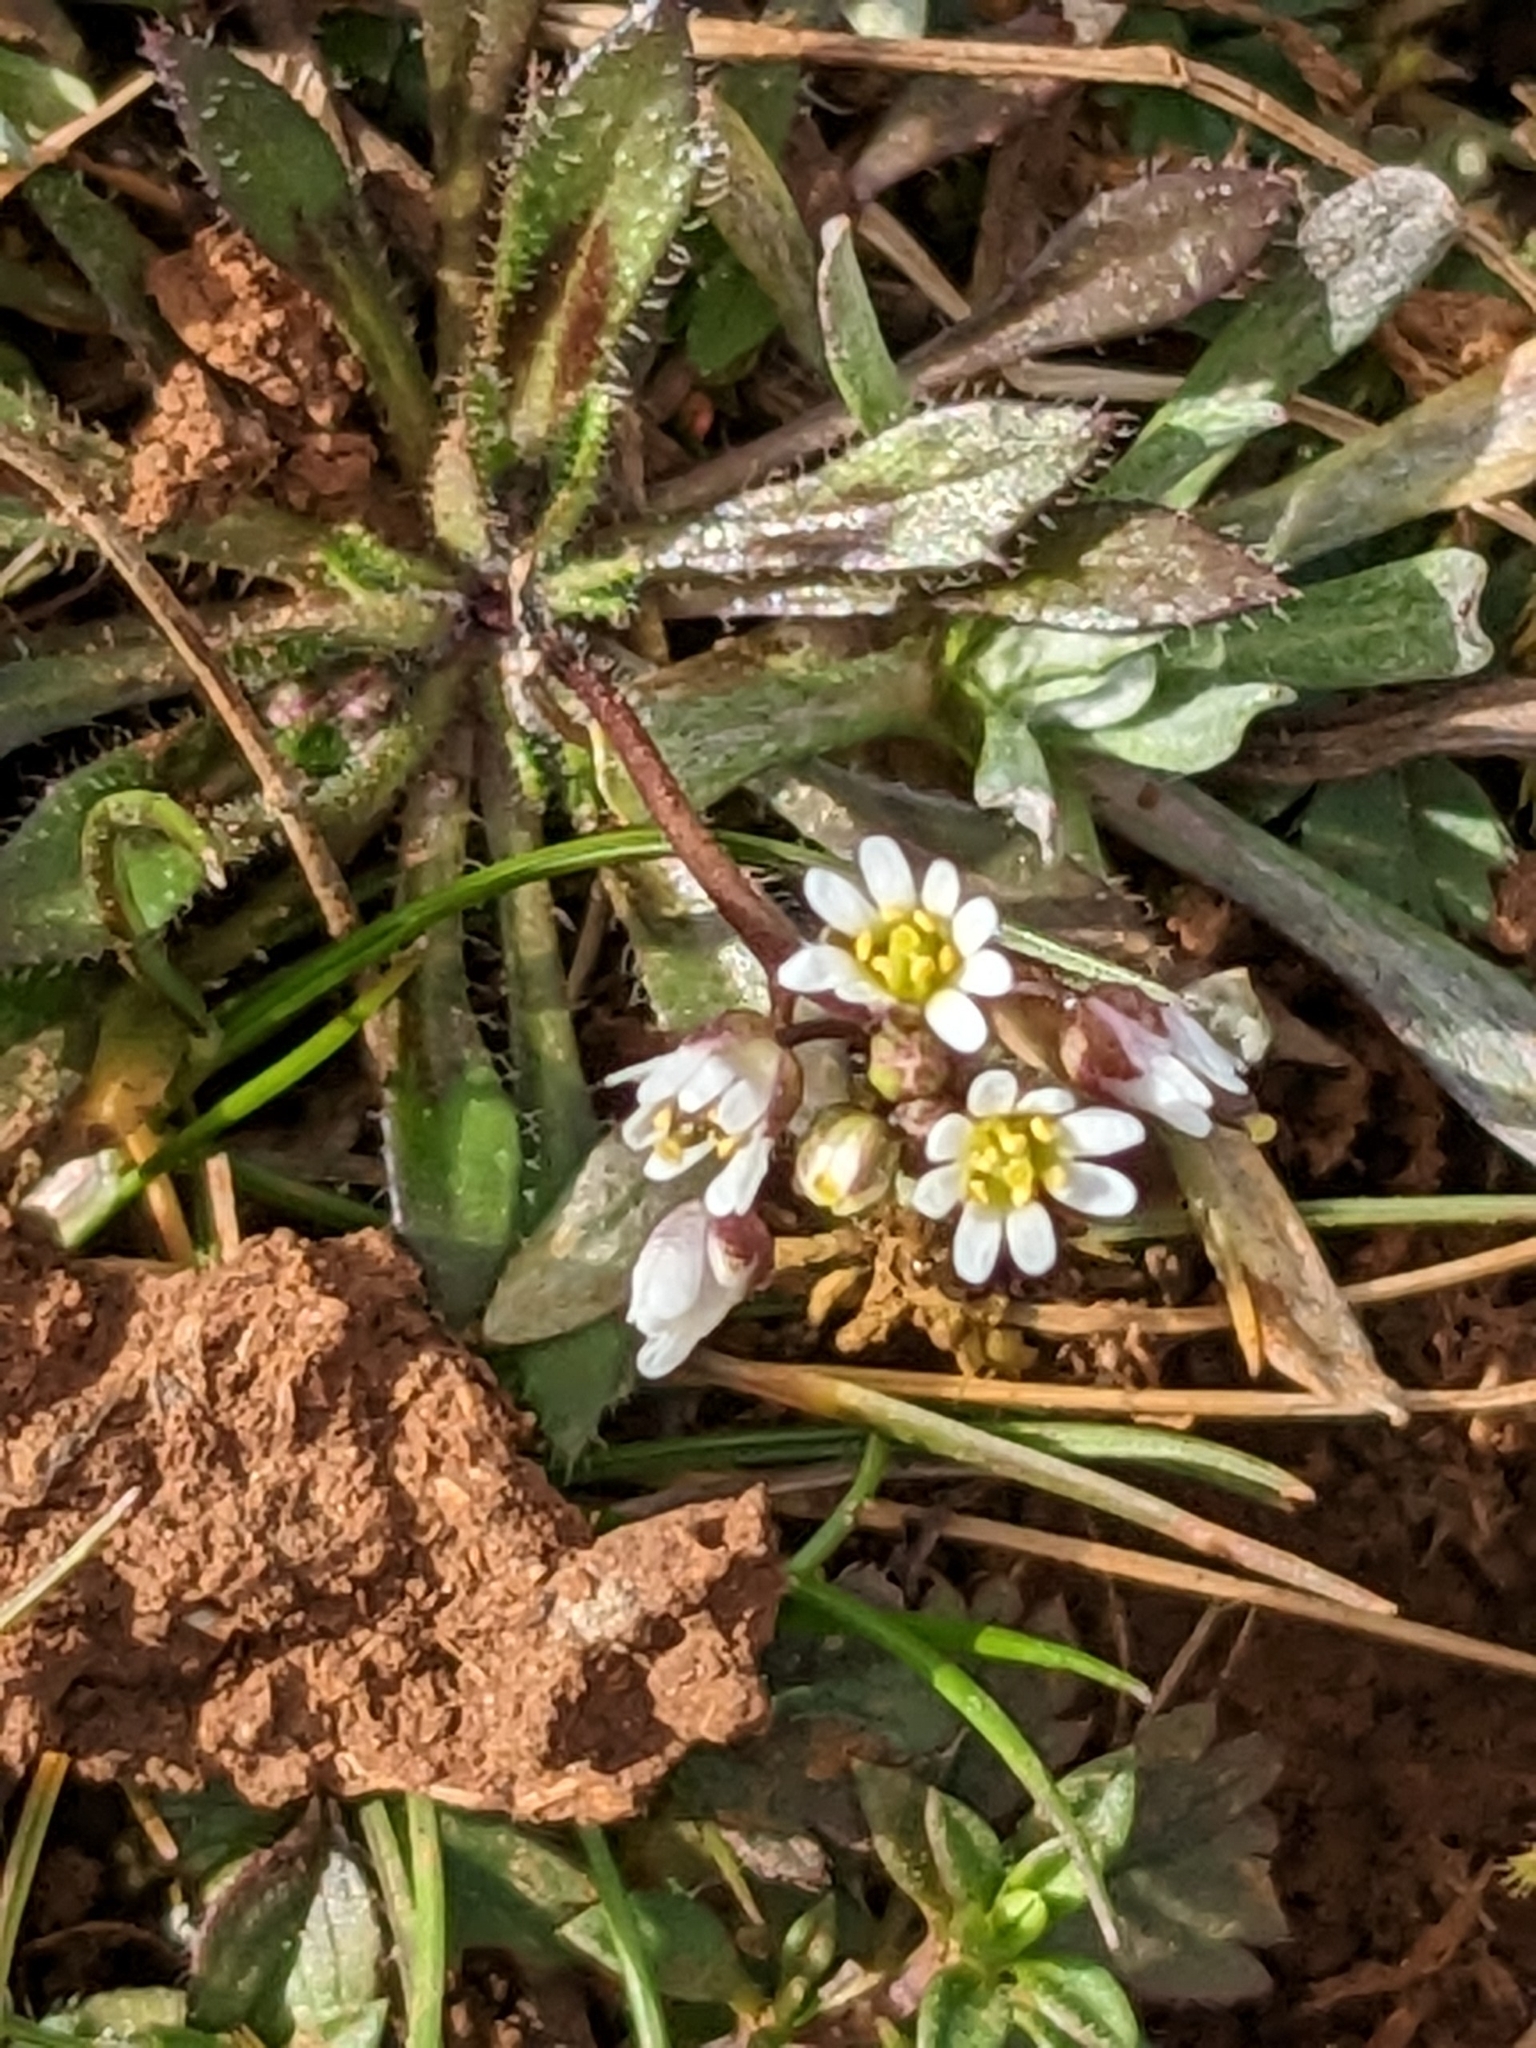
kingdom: Plantae
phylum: Tracheophyta
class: Magnoliopsida
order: Brassicales
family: Brassicaceae
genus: Draba
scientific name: Draba verna
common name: Spring draba
